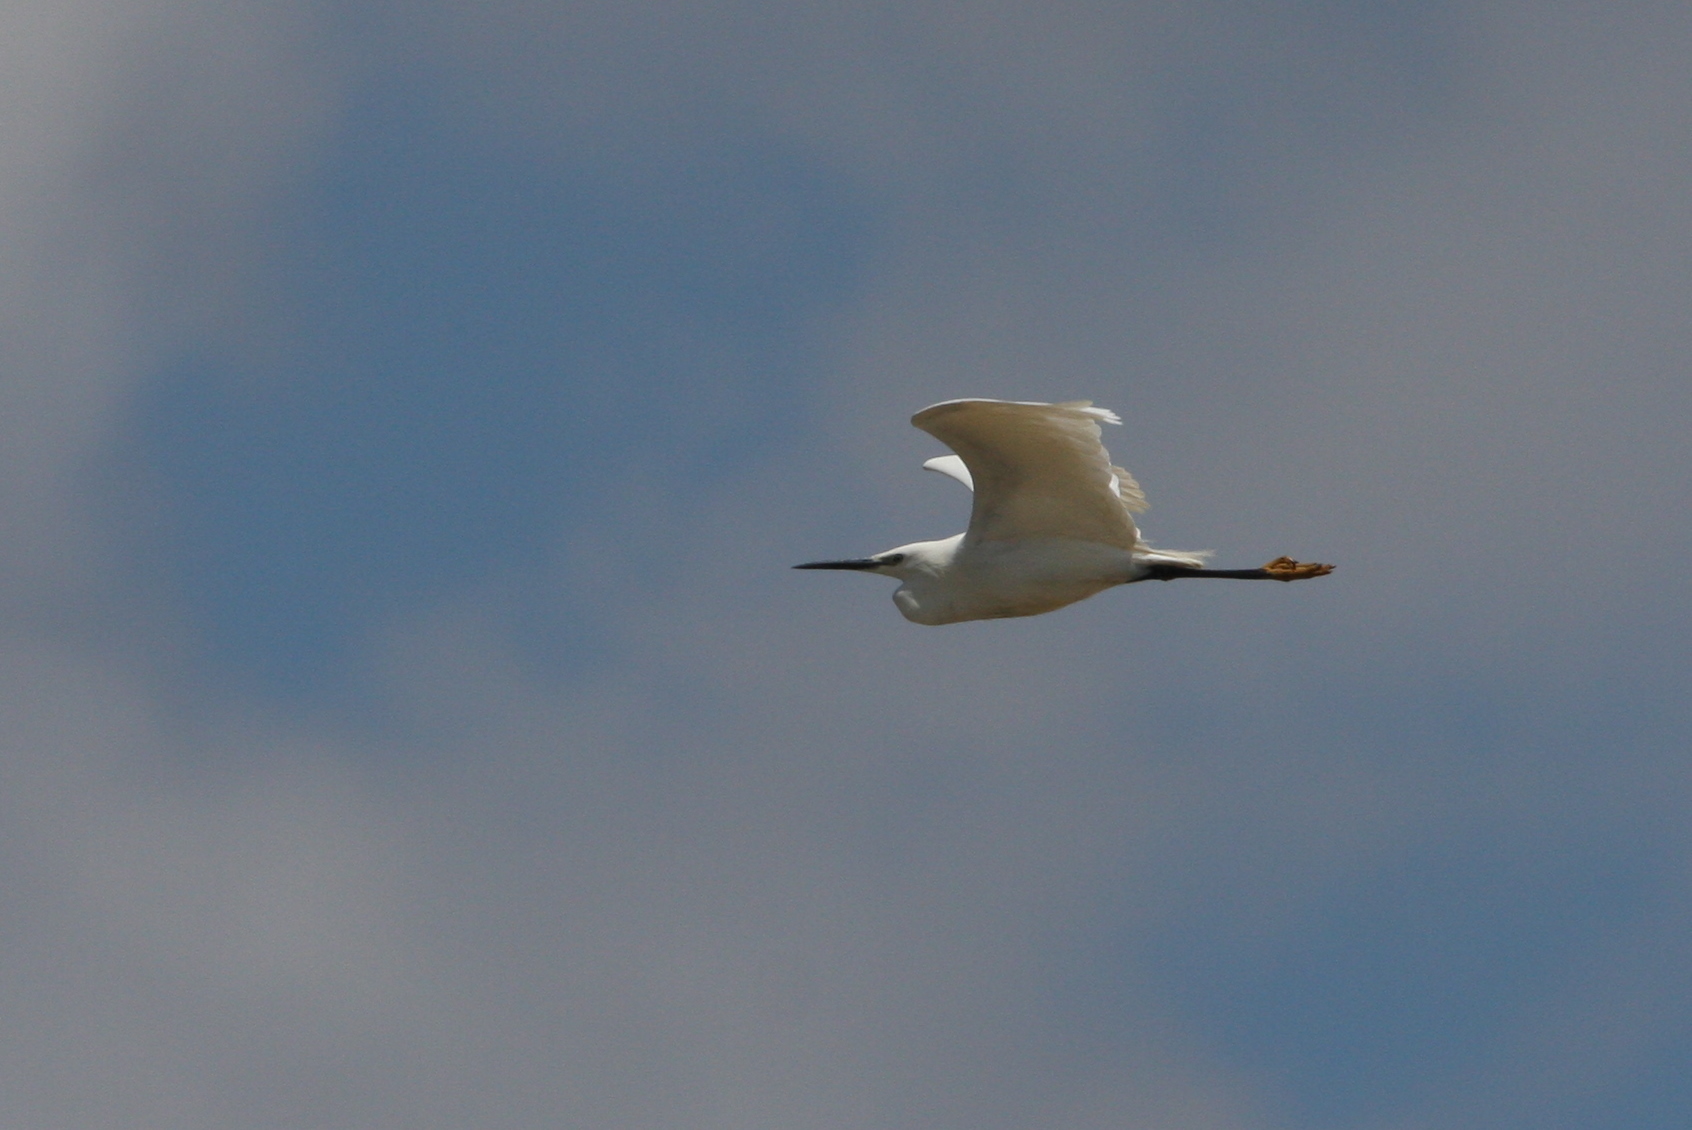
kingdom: Animalia
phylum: Chordata
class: Aves
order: Pelecaniformes
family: Ardeidae
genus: Egretta
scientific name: Egretta garzetta
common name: Little egret
